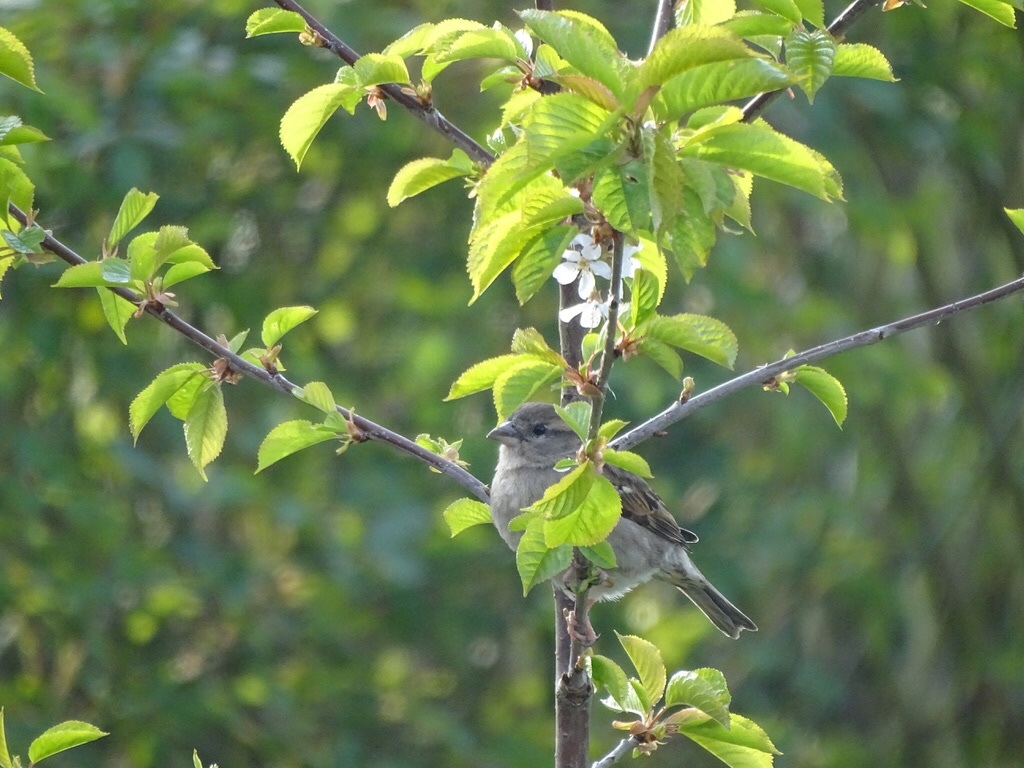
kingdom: Animalia
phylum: Chordata
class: Aves
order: Passeriformes
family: Passeridae
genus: Passer
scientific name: Passer domesticus
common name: House sparrow
